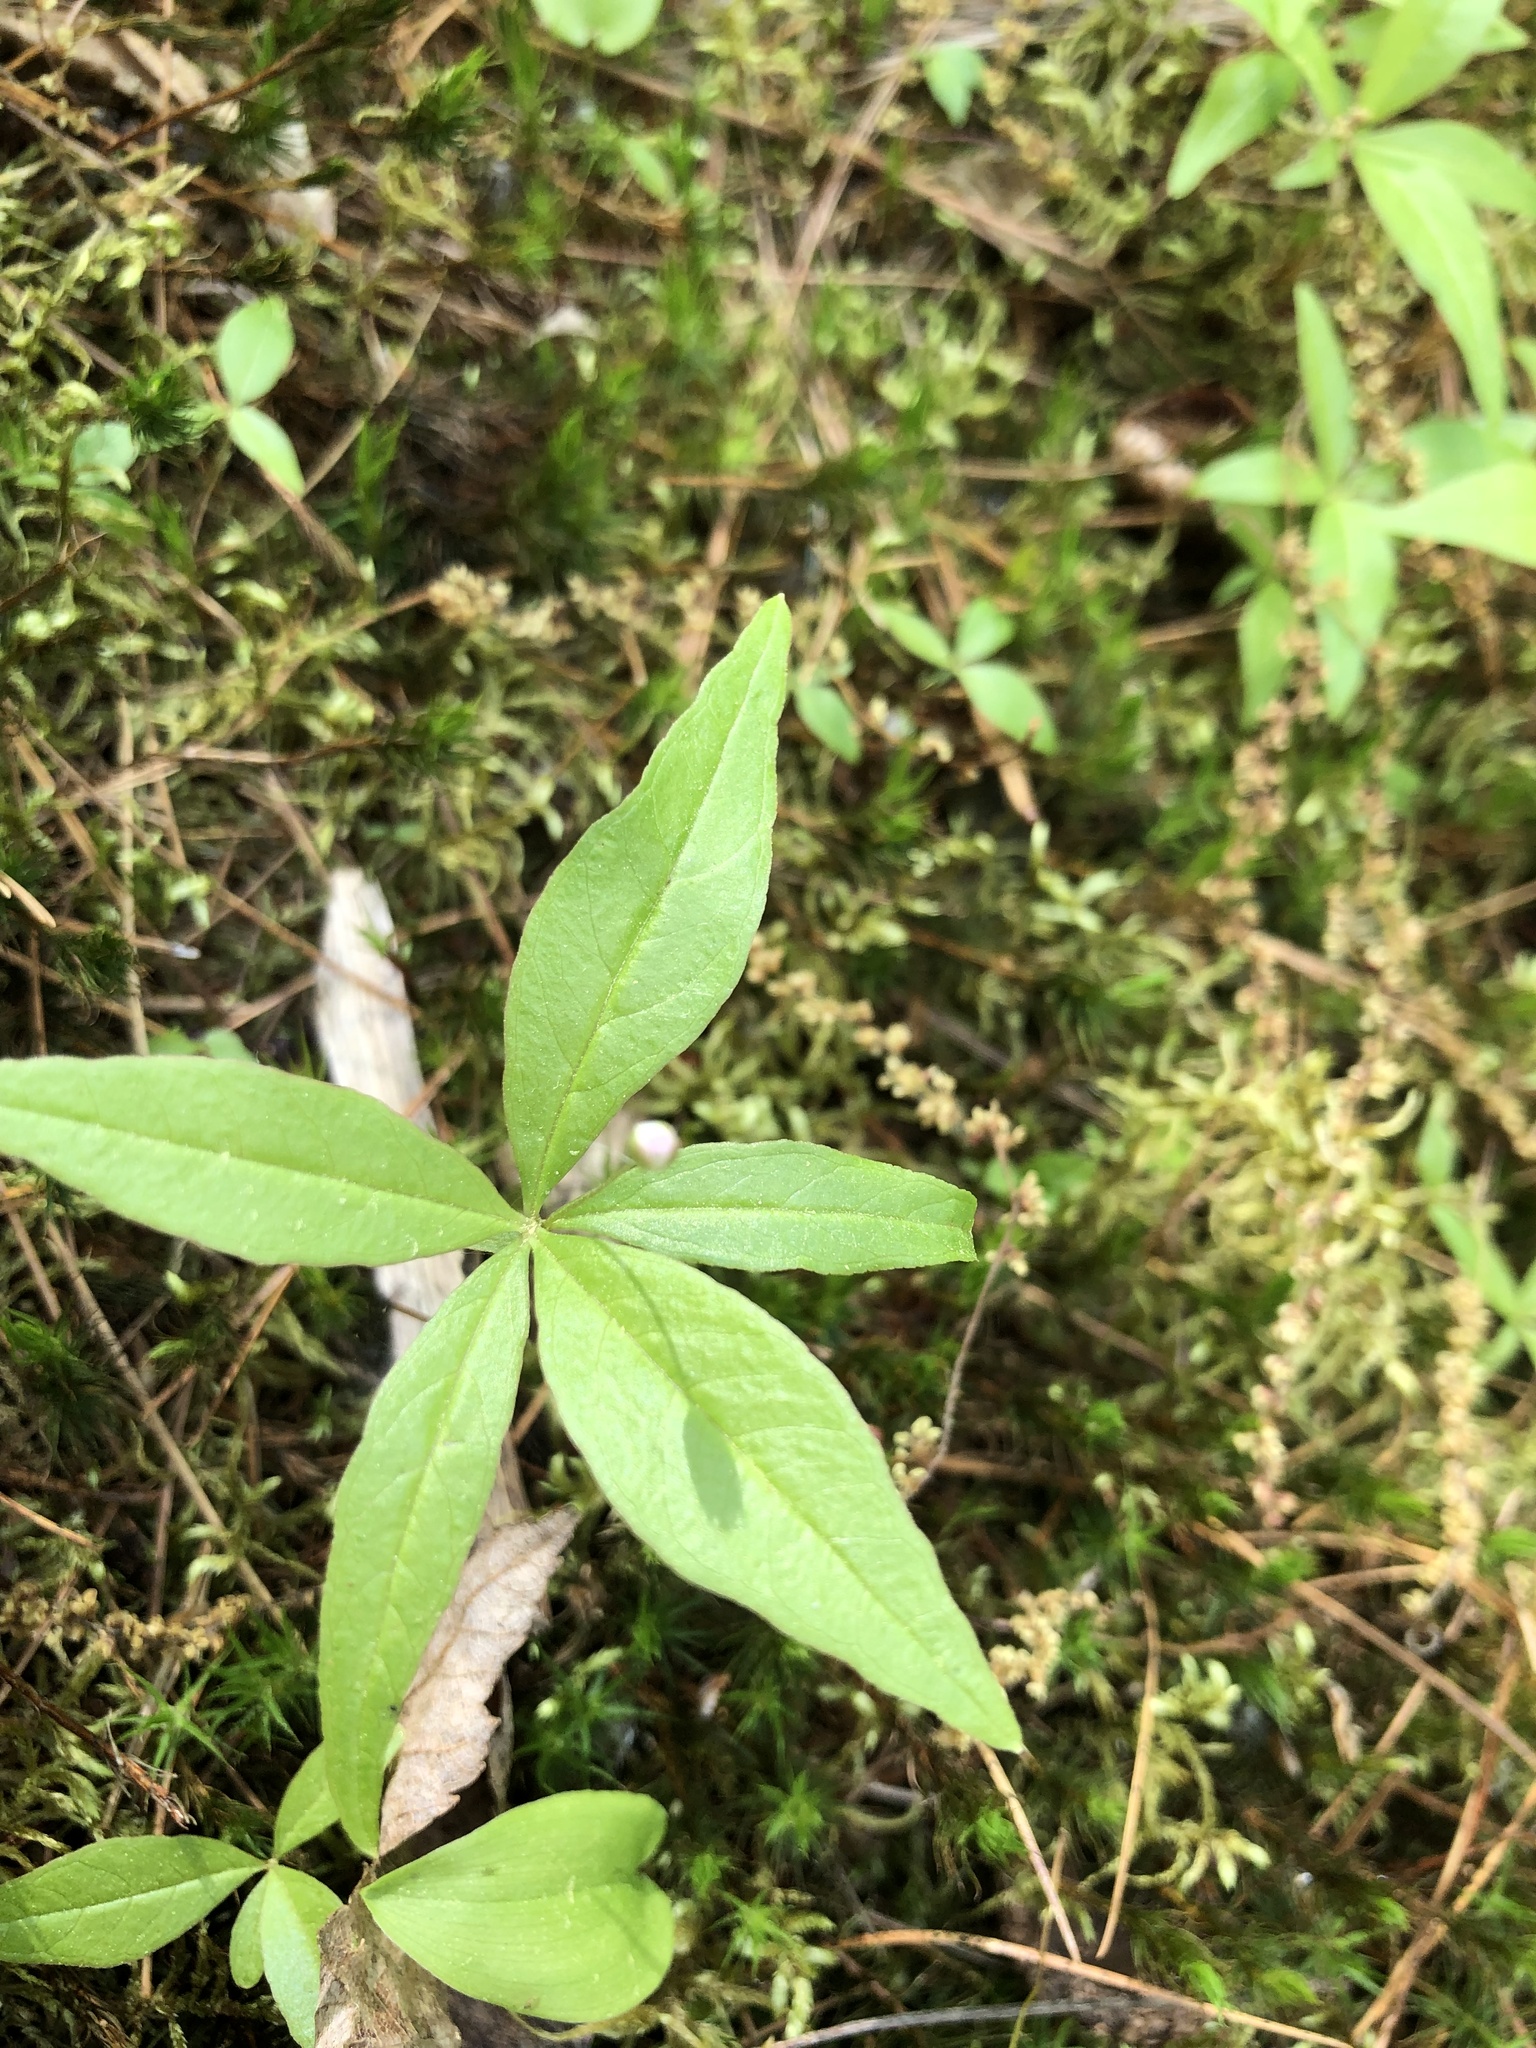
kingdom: Plantae
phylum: Tracheophyta
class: Magnoliopsida
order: Ericales
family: Primulaceae
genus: Lysimachia
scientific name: Lysimachia borealis
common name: American starflower
